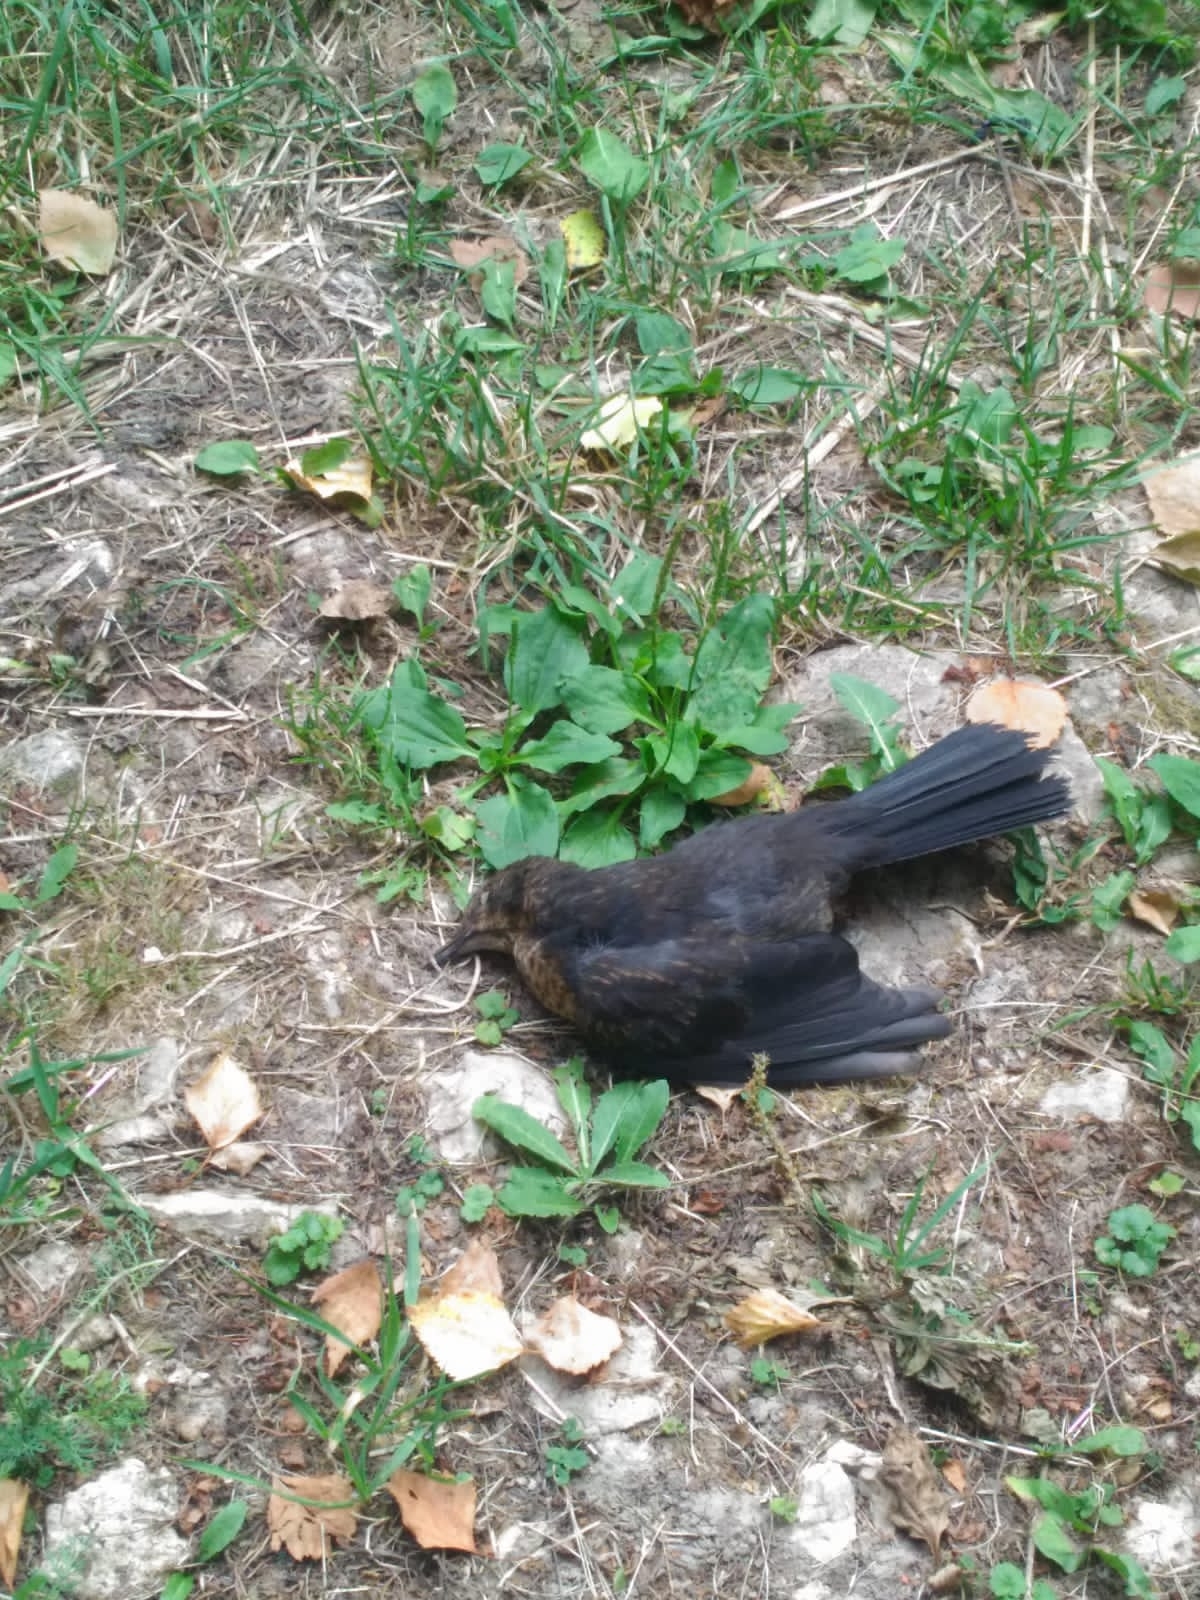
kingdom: Animalia
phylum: Chordata
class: Aves
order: Passeriformes
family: Turdidae
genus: Turdus
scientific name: Turdus merula
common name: Common blackbird
